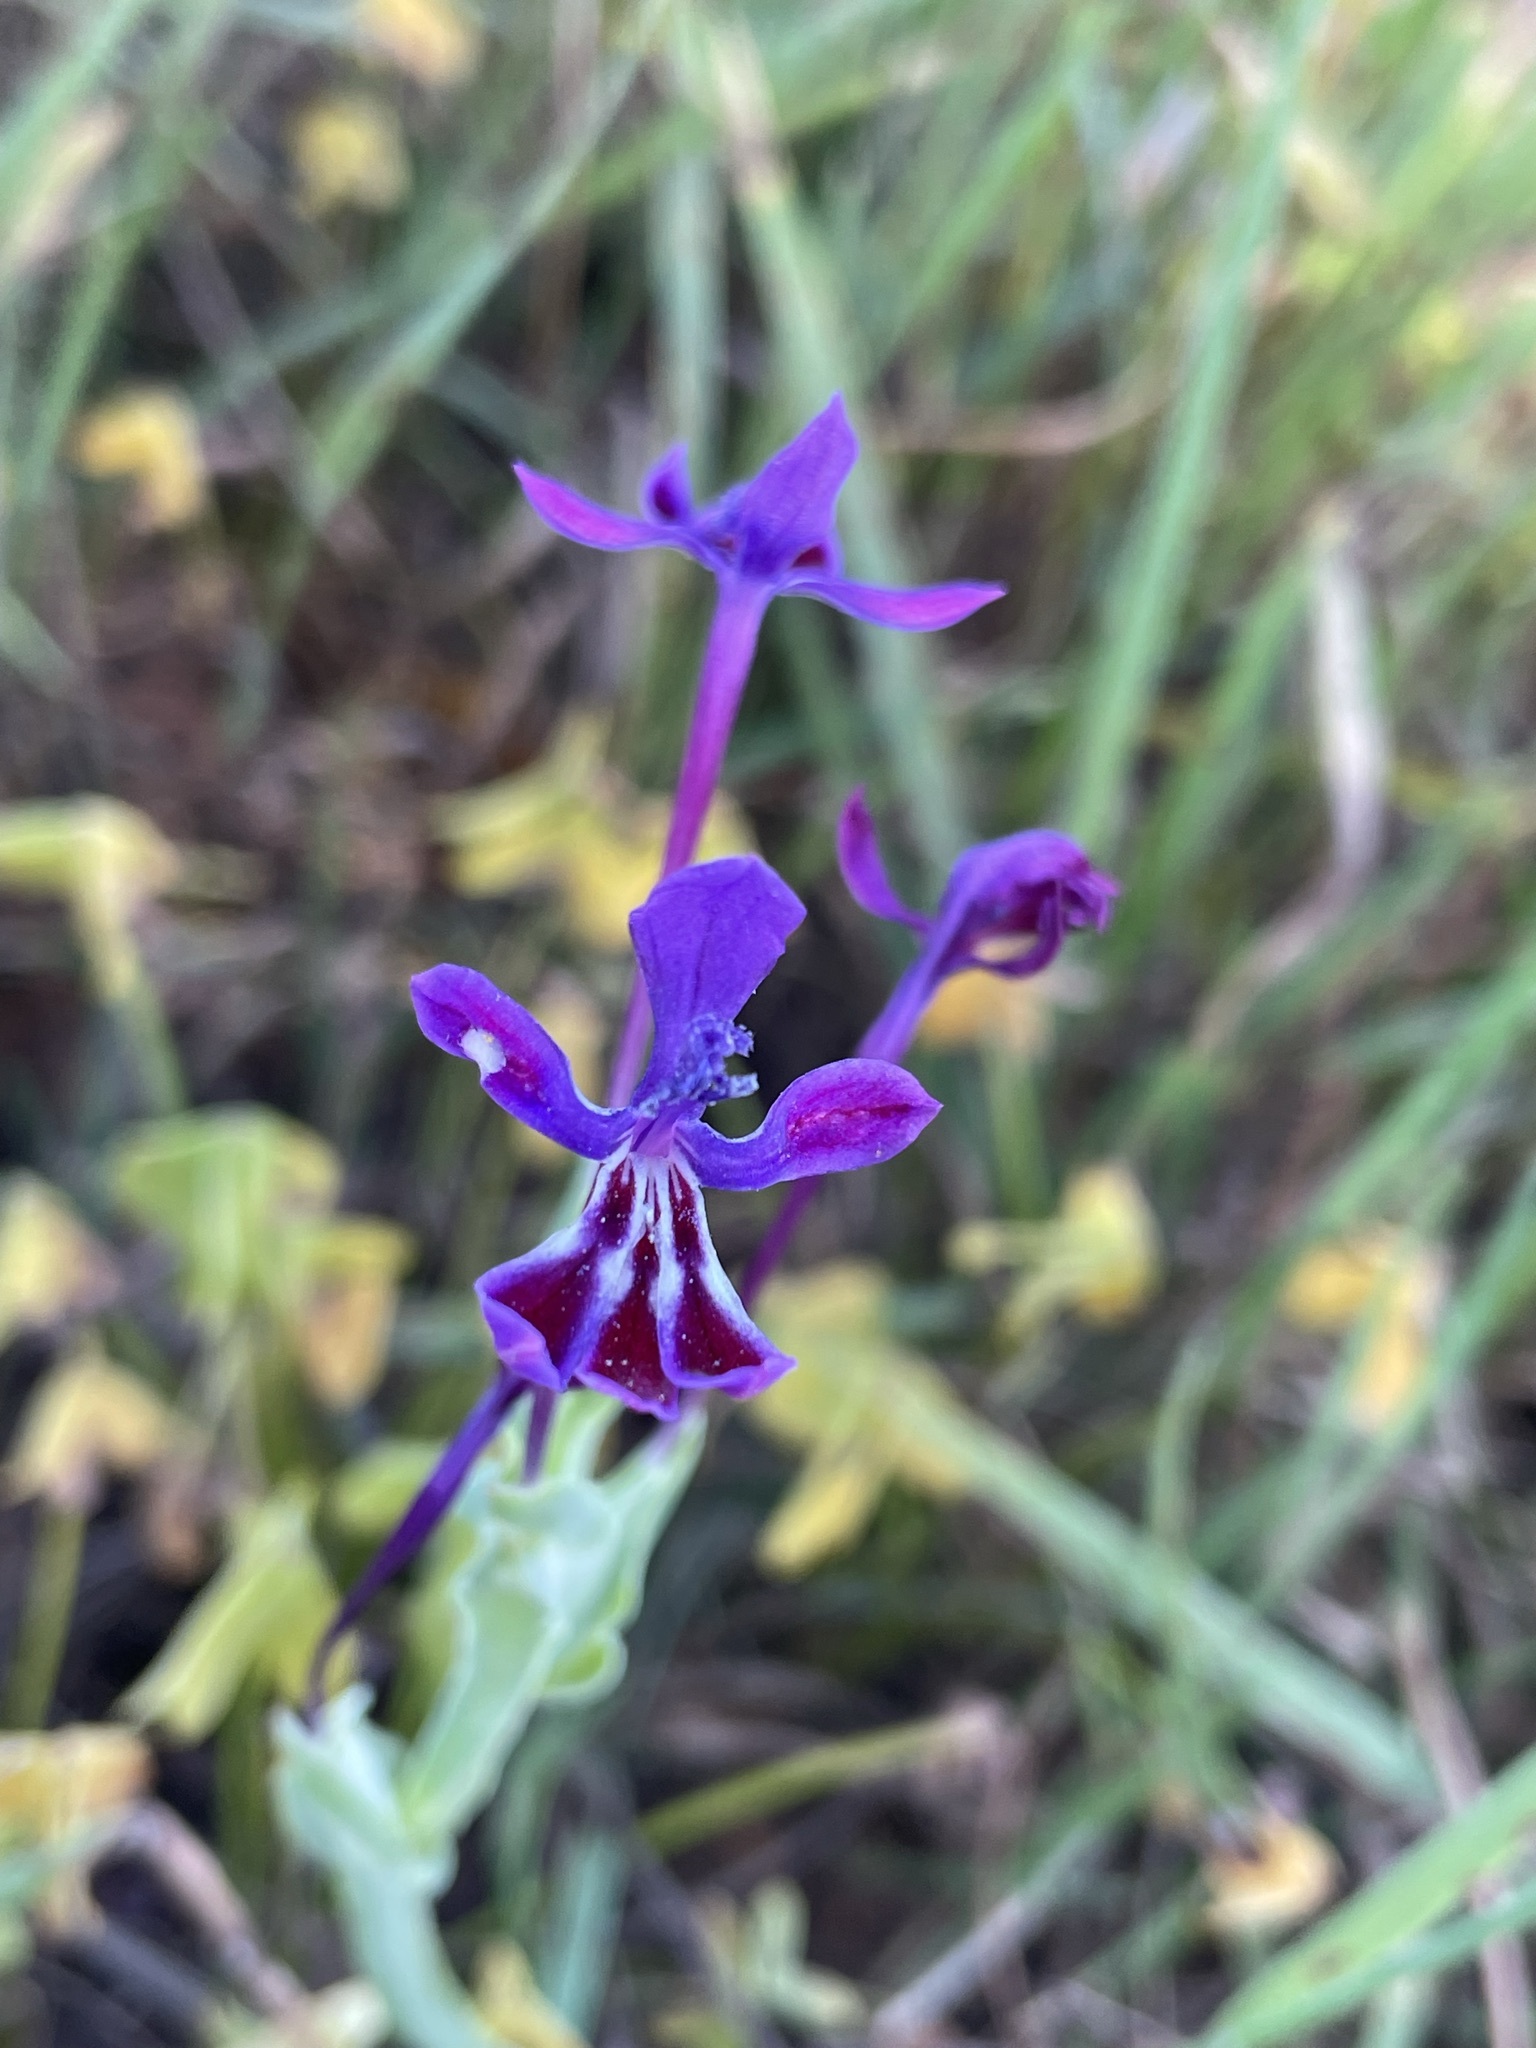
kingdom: Plantae
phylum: Tracheophyta
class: Liliopsida
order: Asparagales
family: Iridaceae
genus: Lapeirousia
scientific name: Lapeirousia jacquinii
